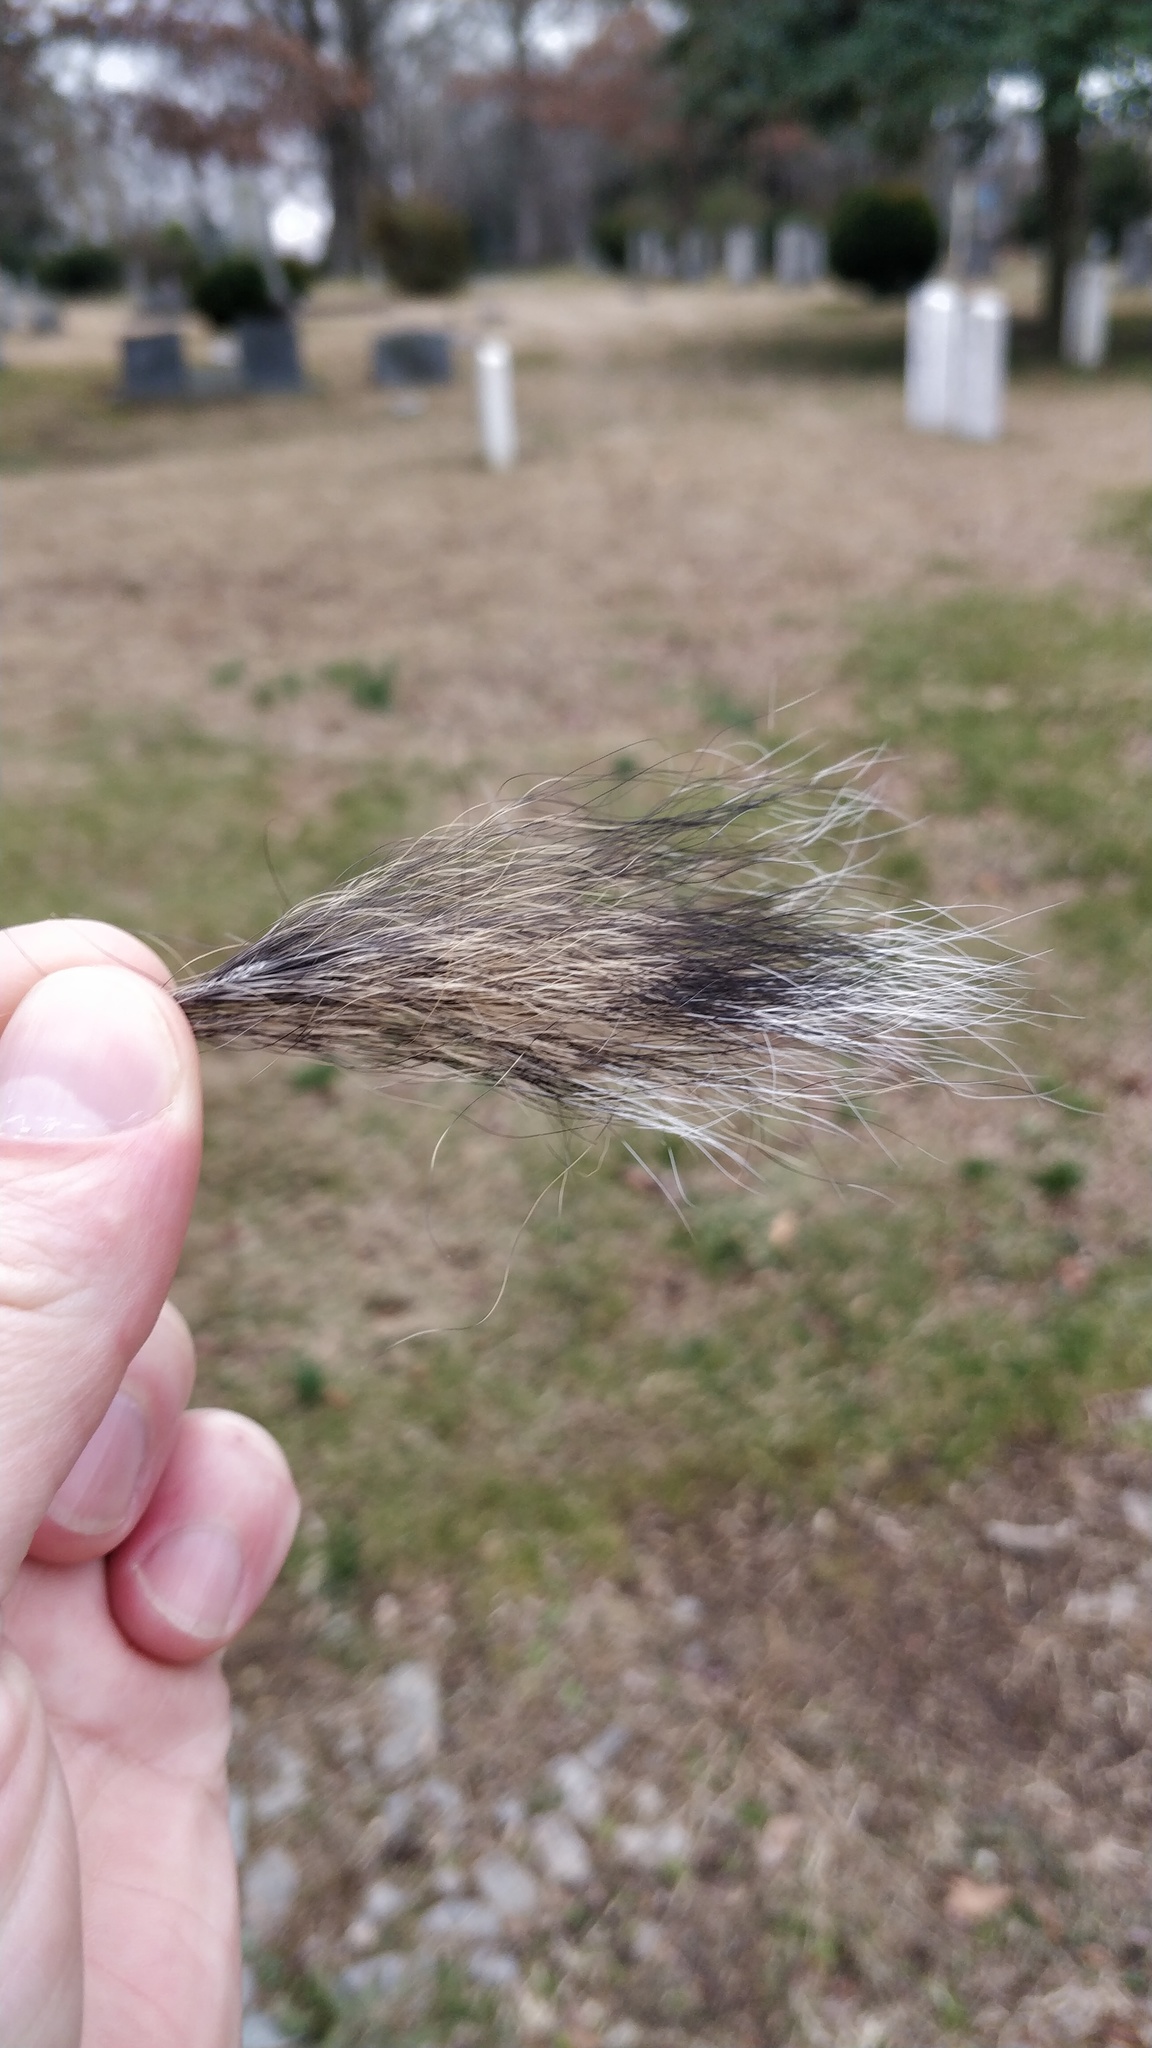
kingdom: Animalia
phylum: Chordata
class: Mammalia
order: Rodentia
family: Sciuridae
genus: Sciurus
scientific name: Sciurus carolinensis
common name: Eastern gray squirrel
